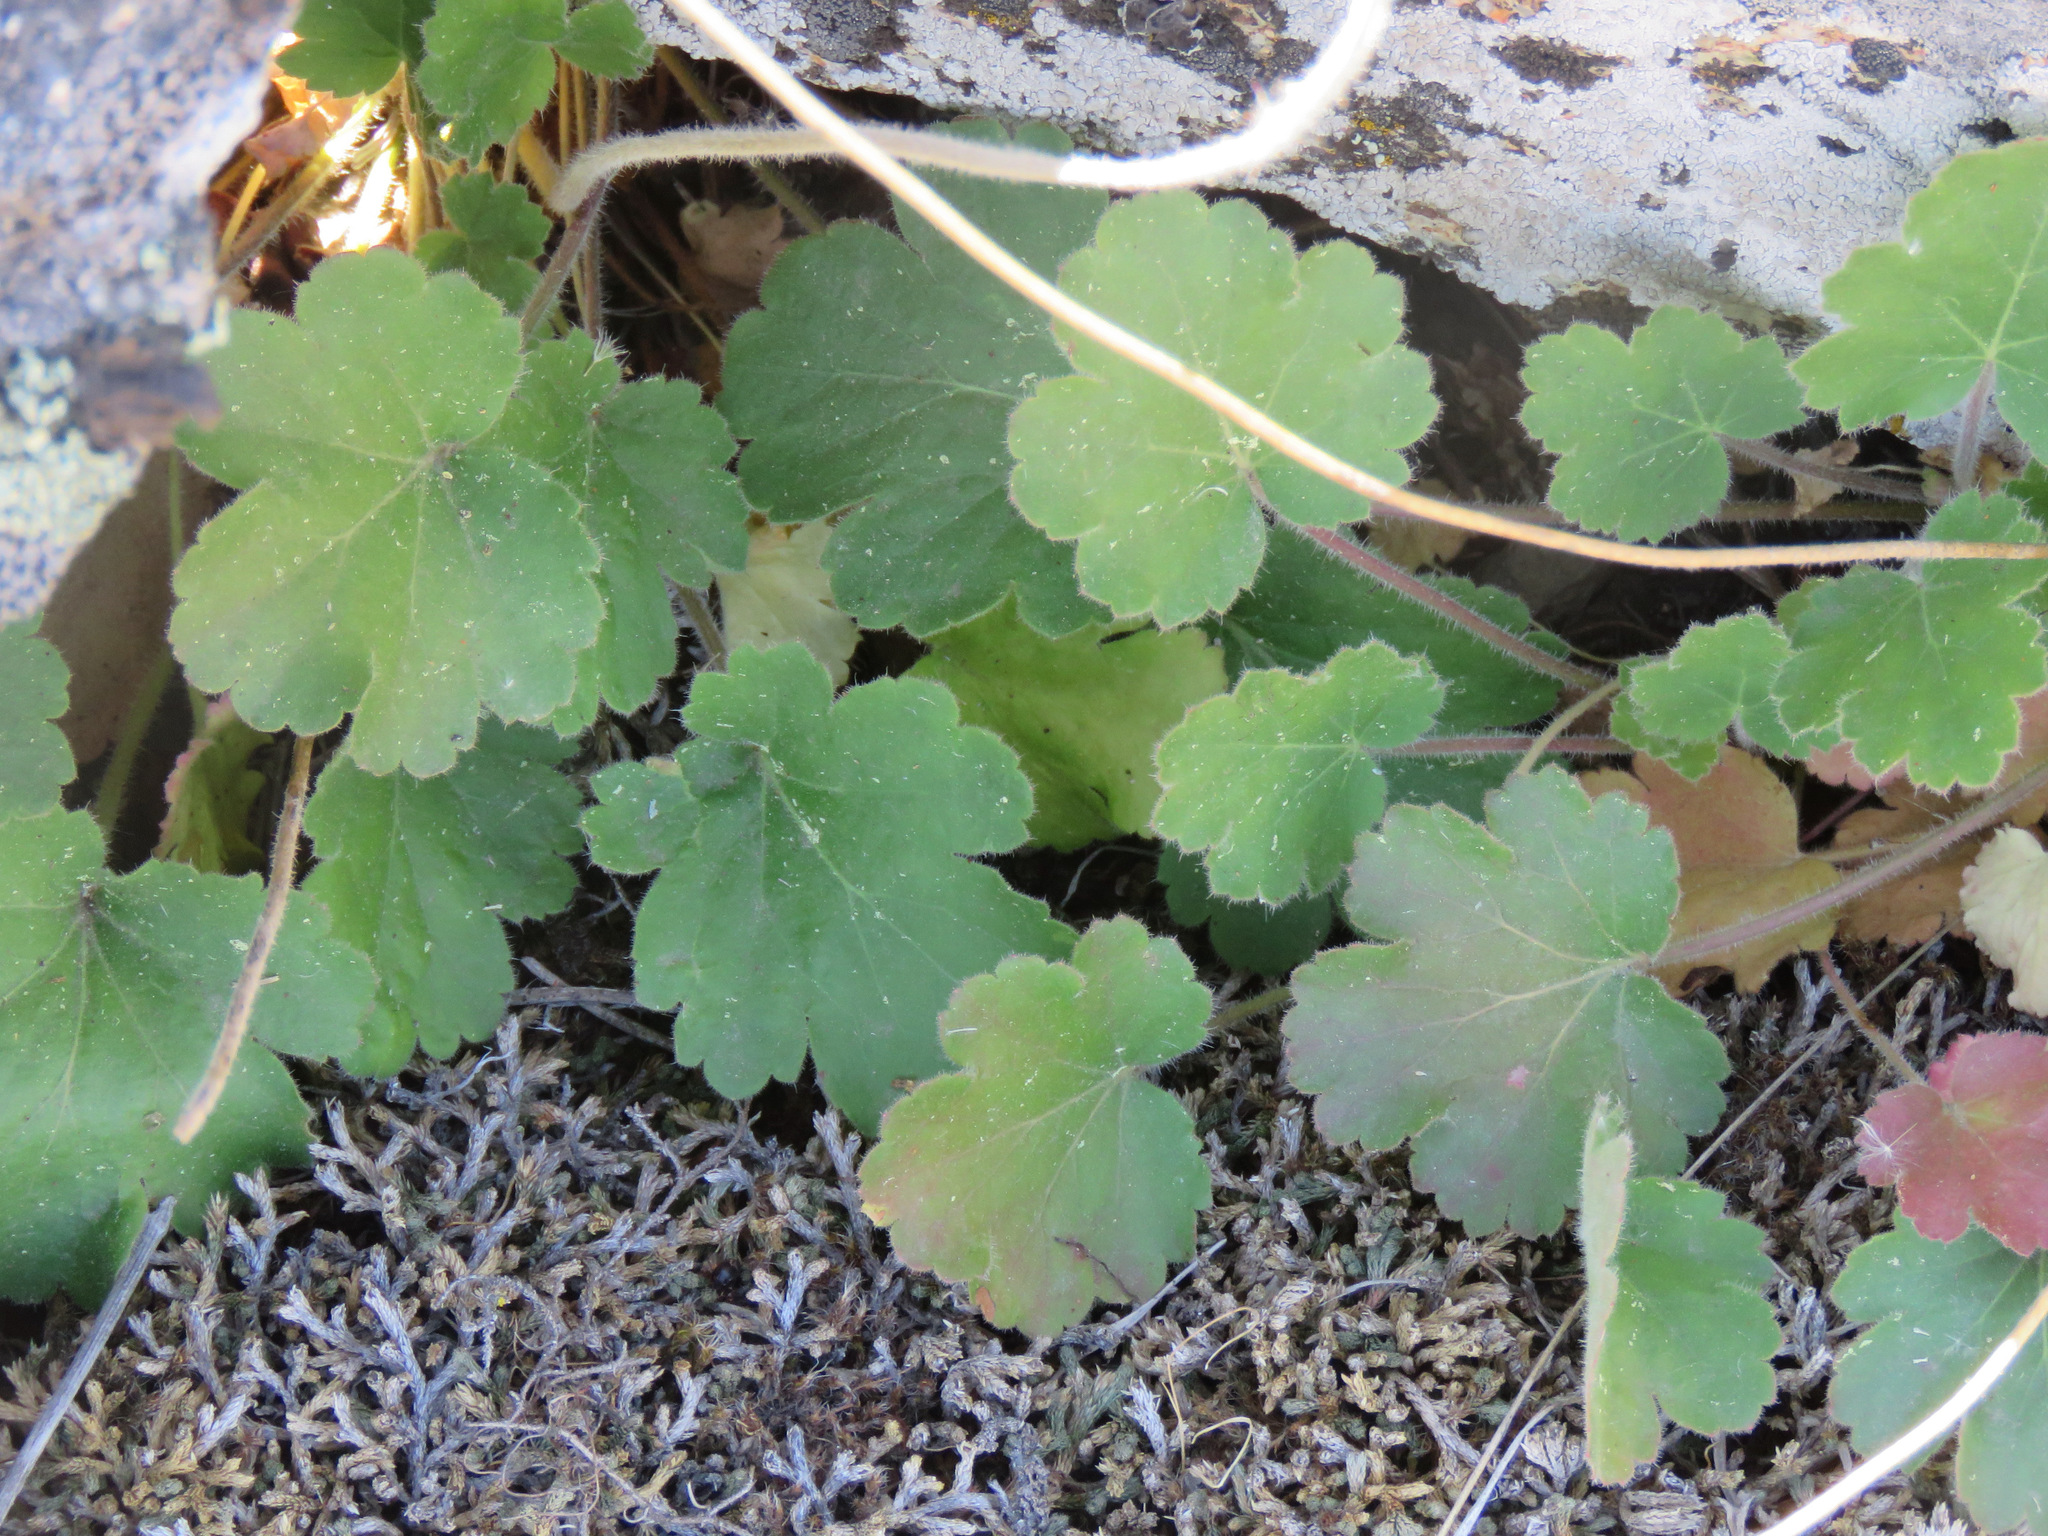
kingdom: Plantae
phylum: Tracheophyta
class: Magnoliopsida
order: Saxifragales
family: Saxifragaceae
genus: Heuchera
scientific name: Heuchera cylindrica
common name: Mat alumroot
